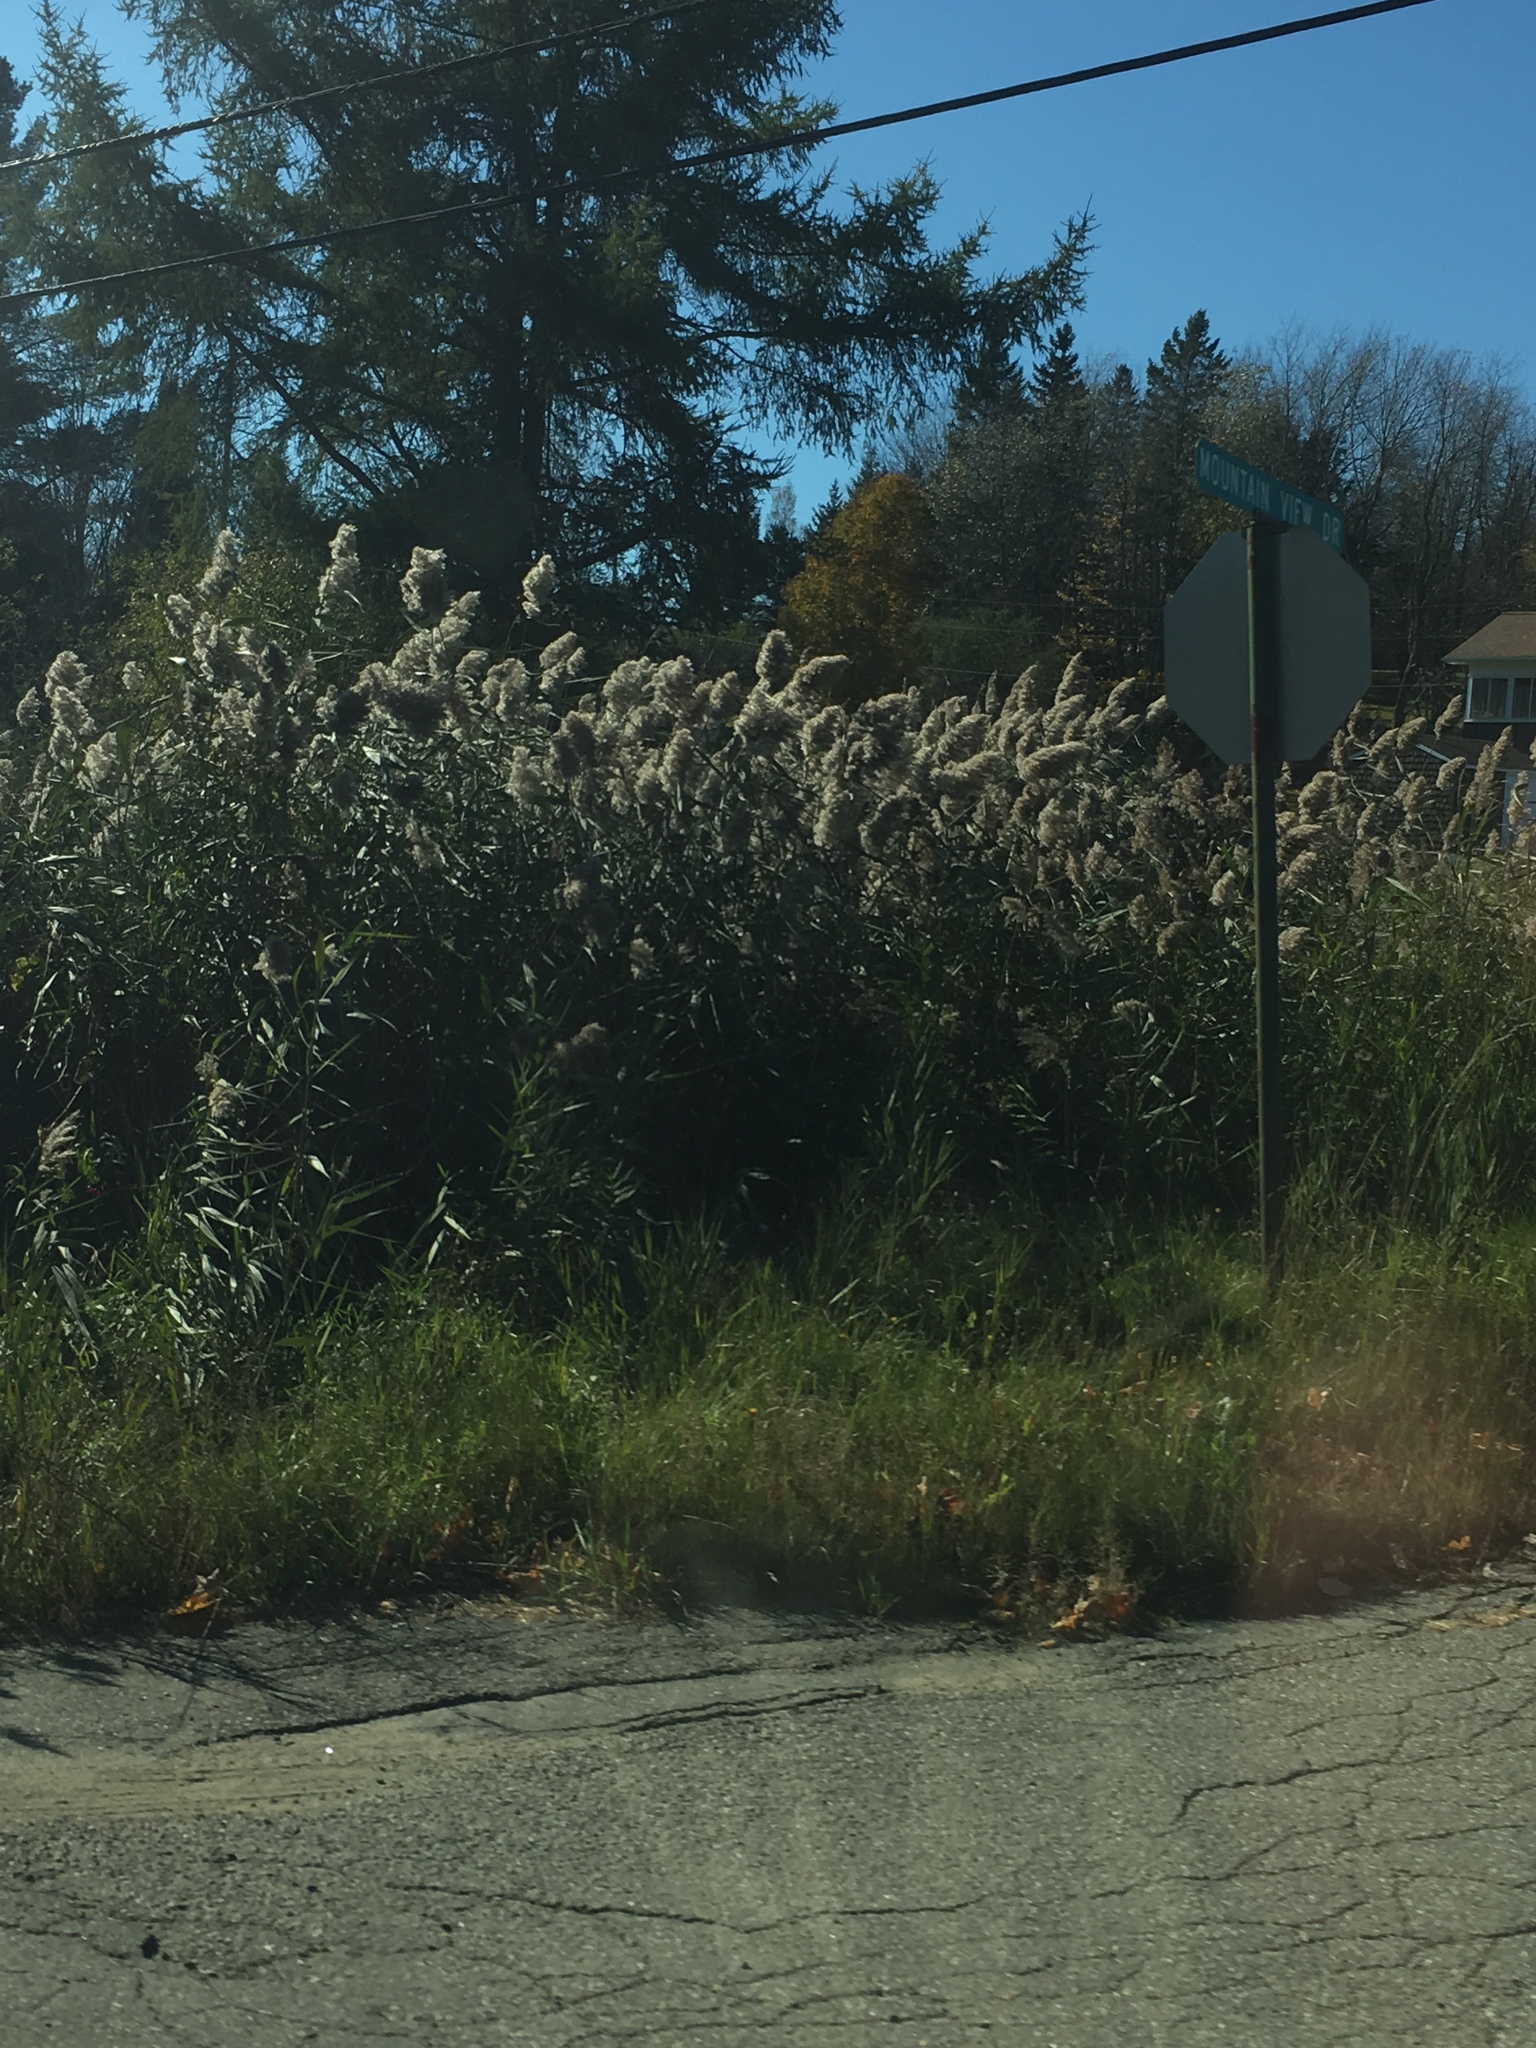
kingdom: Plantae
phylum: Tracheophyta
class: Liliopsida
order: Poales
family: Poaceae
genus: Phragmites
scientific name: Phragmites australis
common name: Common reed
